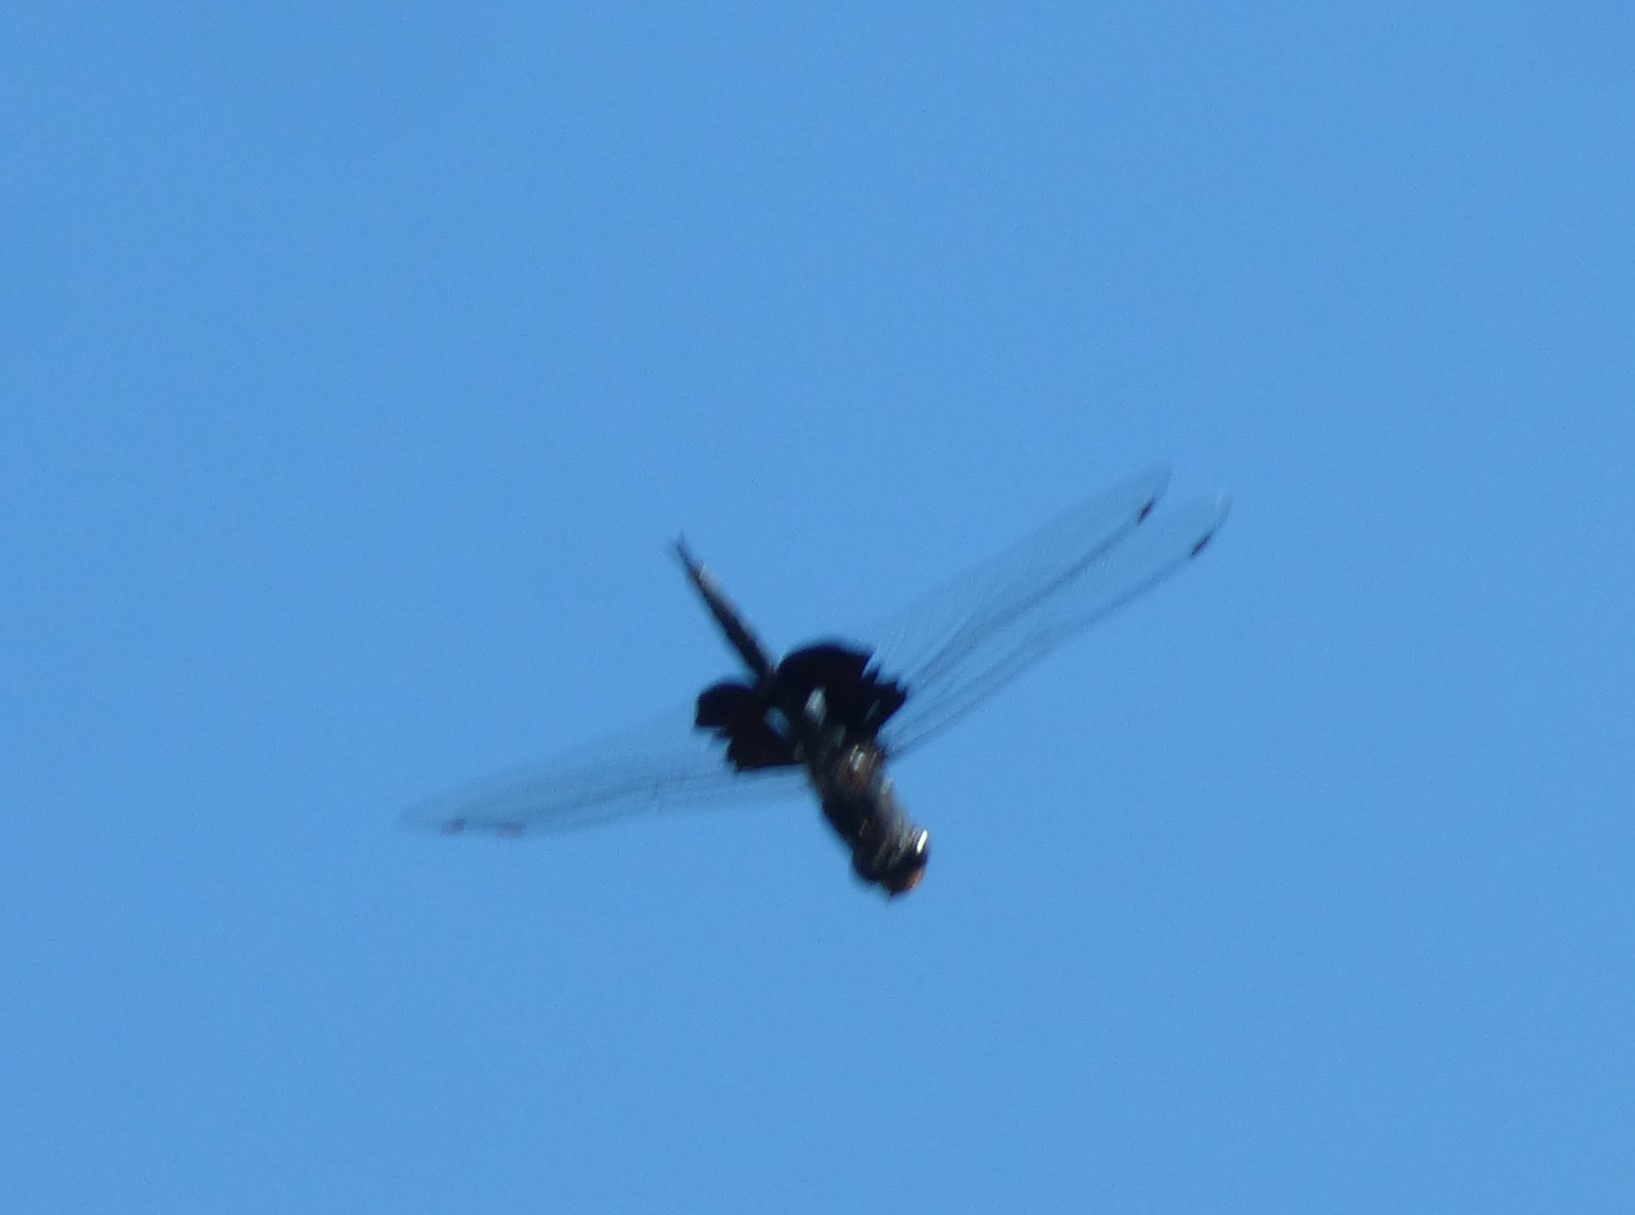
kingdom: Animalia
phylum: Arthropoda
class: Insecta
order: Odonata
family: Libellulidae
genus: Tramea
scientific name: Tramea lacerata
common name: Black saddlebags
